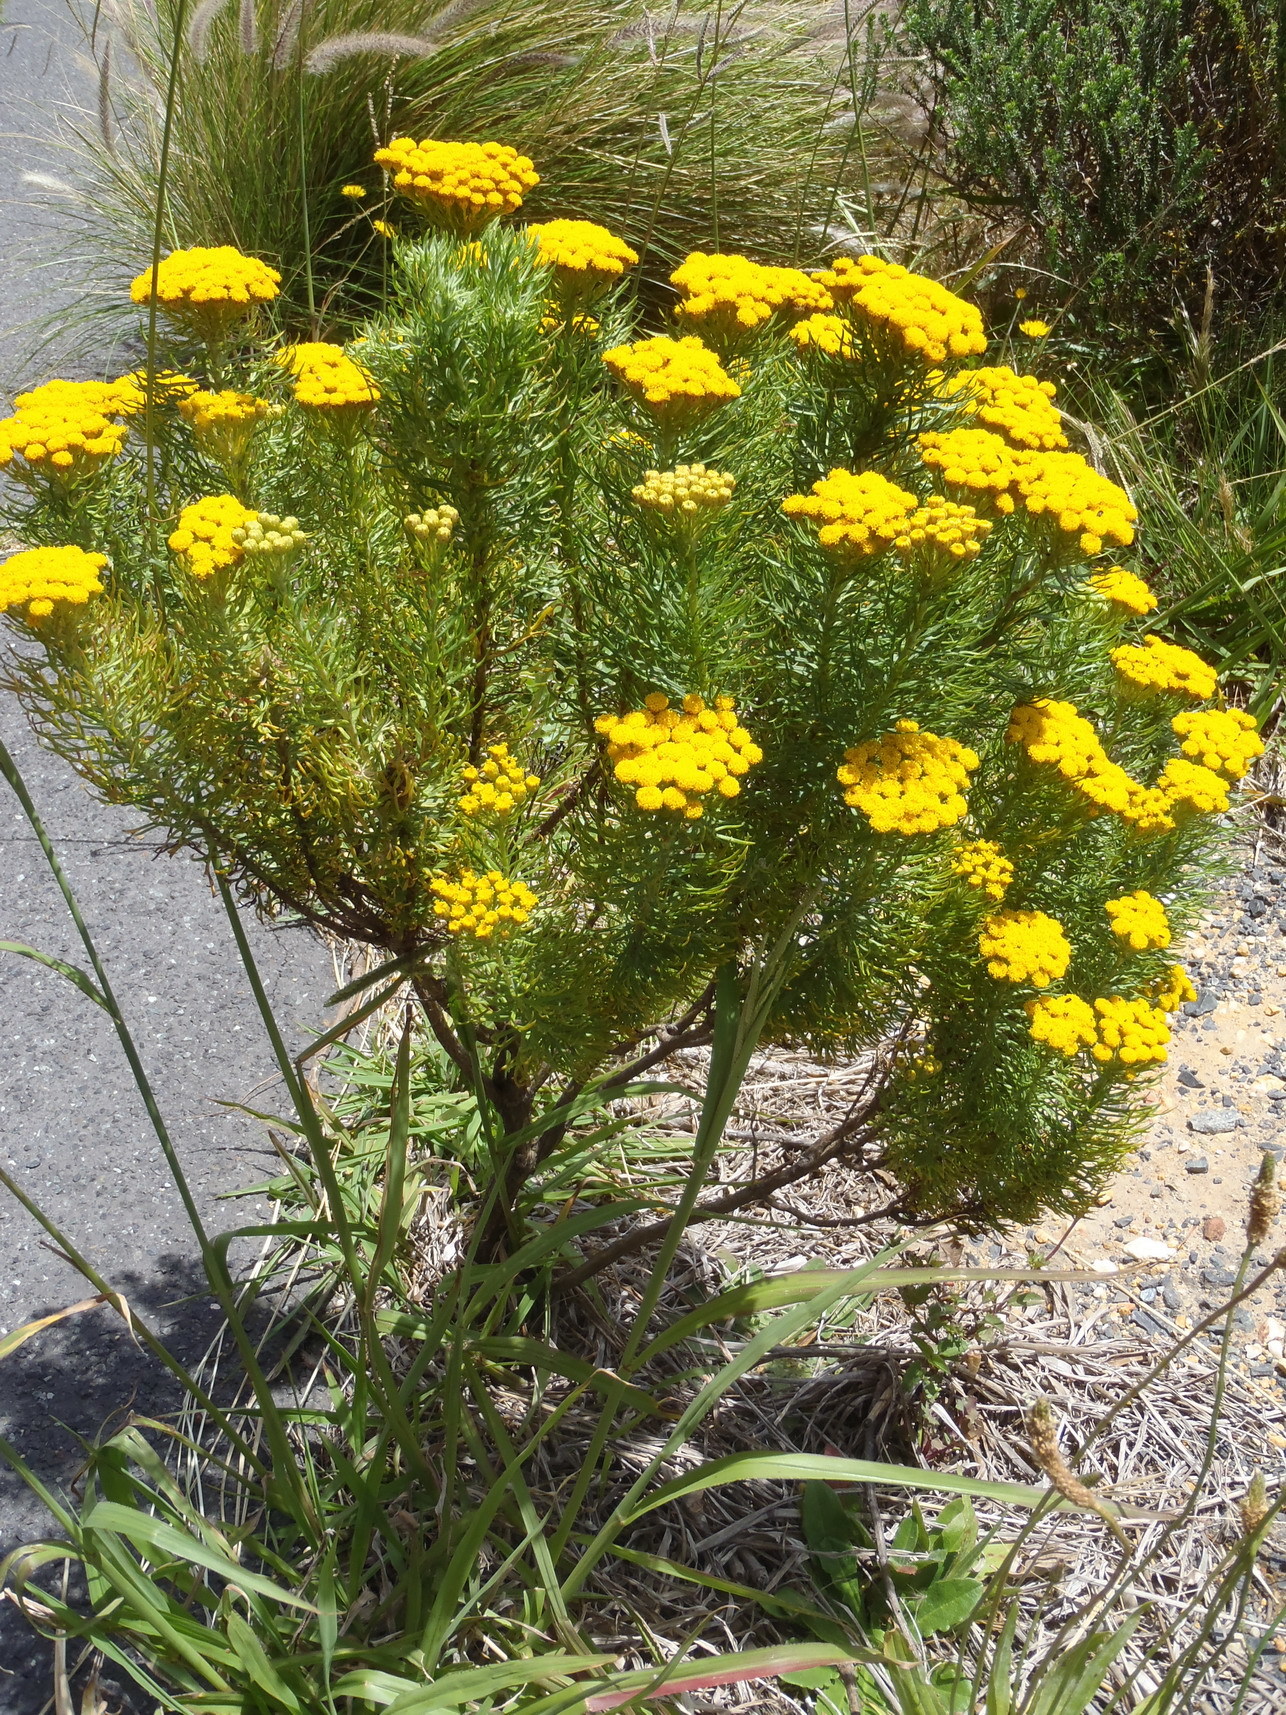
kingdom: Plantae
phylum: Tracheophyta
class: Magnoliopsida
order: Asterales
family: Asteraceae
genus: Hymenolepis
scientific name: Hymenolepis crithmifolia
